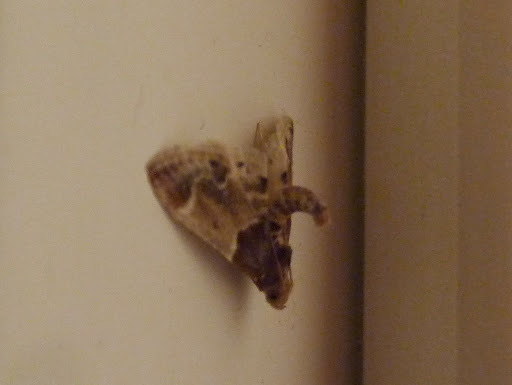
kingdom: Animalia
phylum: Arthropoda
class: Insecta
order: Lepidoptera
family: Pyralidae
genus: Pyralis
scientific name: Pyralis farinalis
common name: Meal moth
